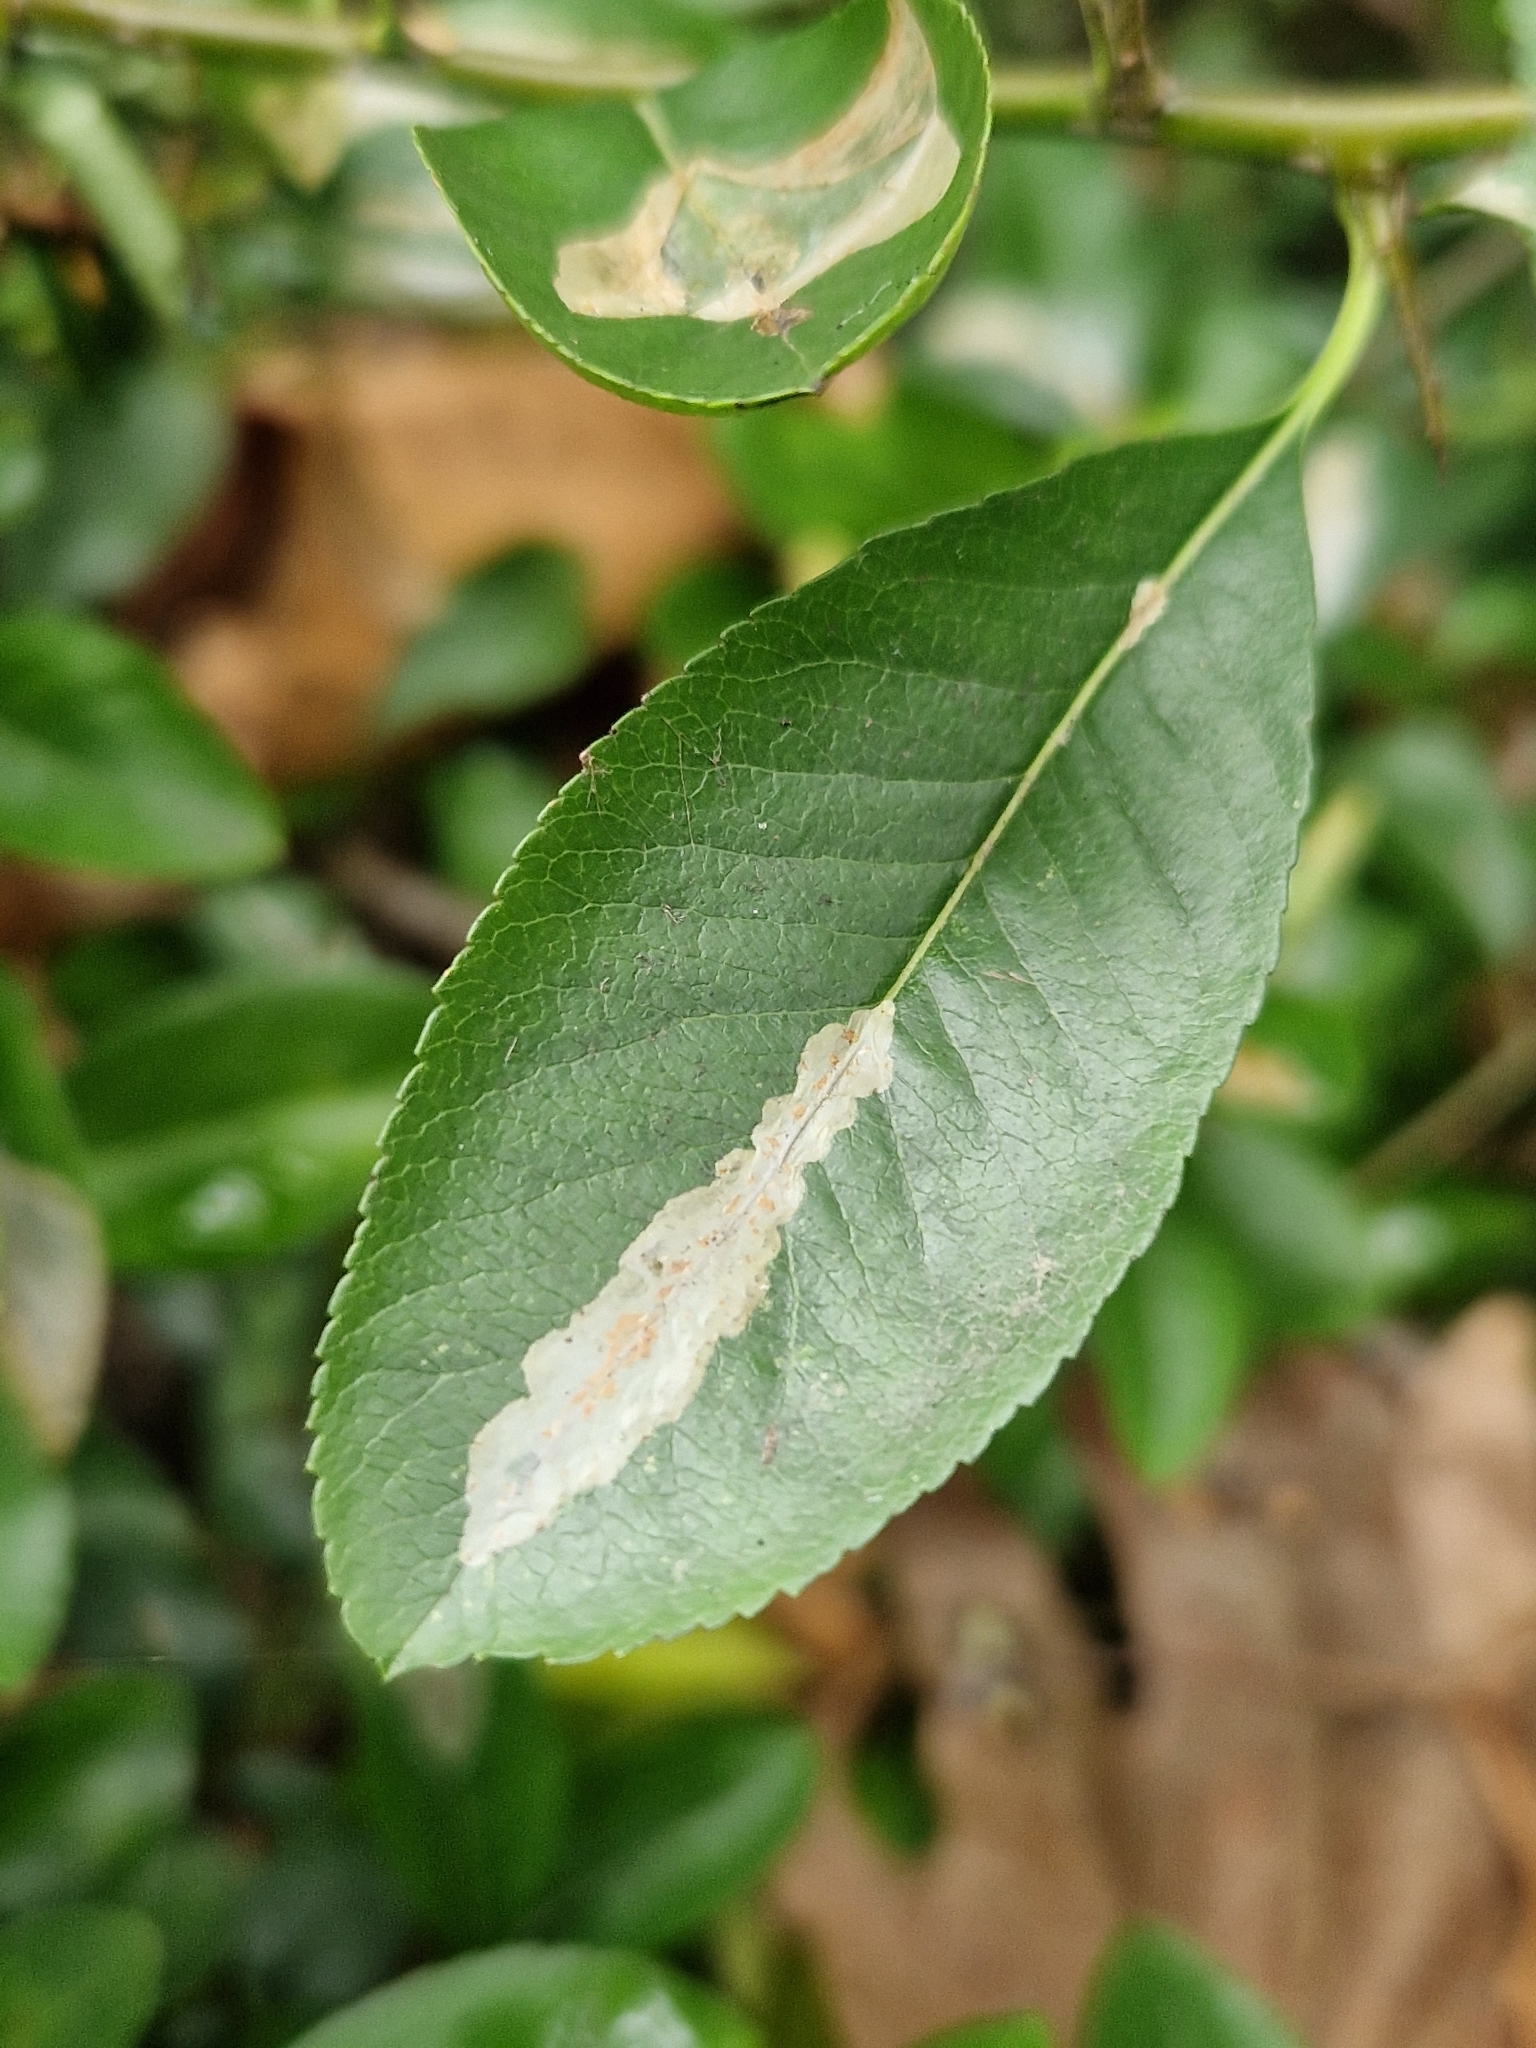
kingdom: Animalia
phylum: Arthropoda
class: Insecta
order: Lepidoptera
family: Gracillariidae
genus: Phyllonorycter
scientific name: Phyllonorycter leucographella
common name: Firethorn leaf-miner
